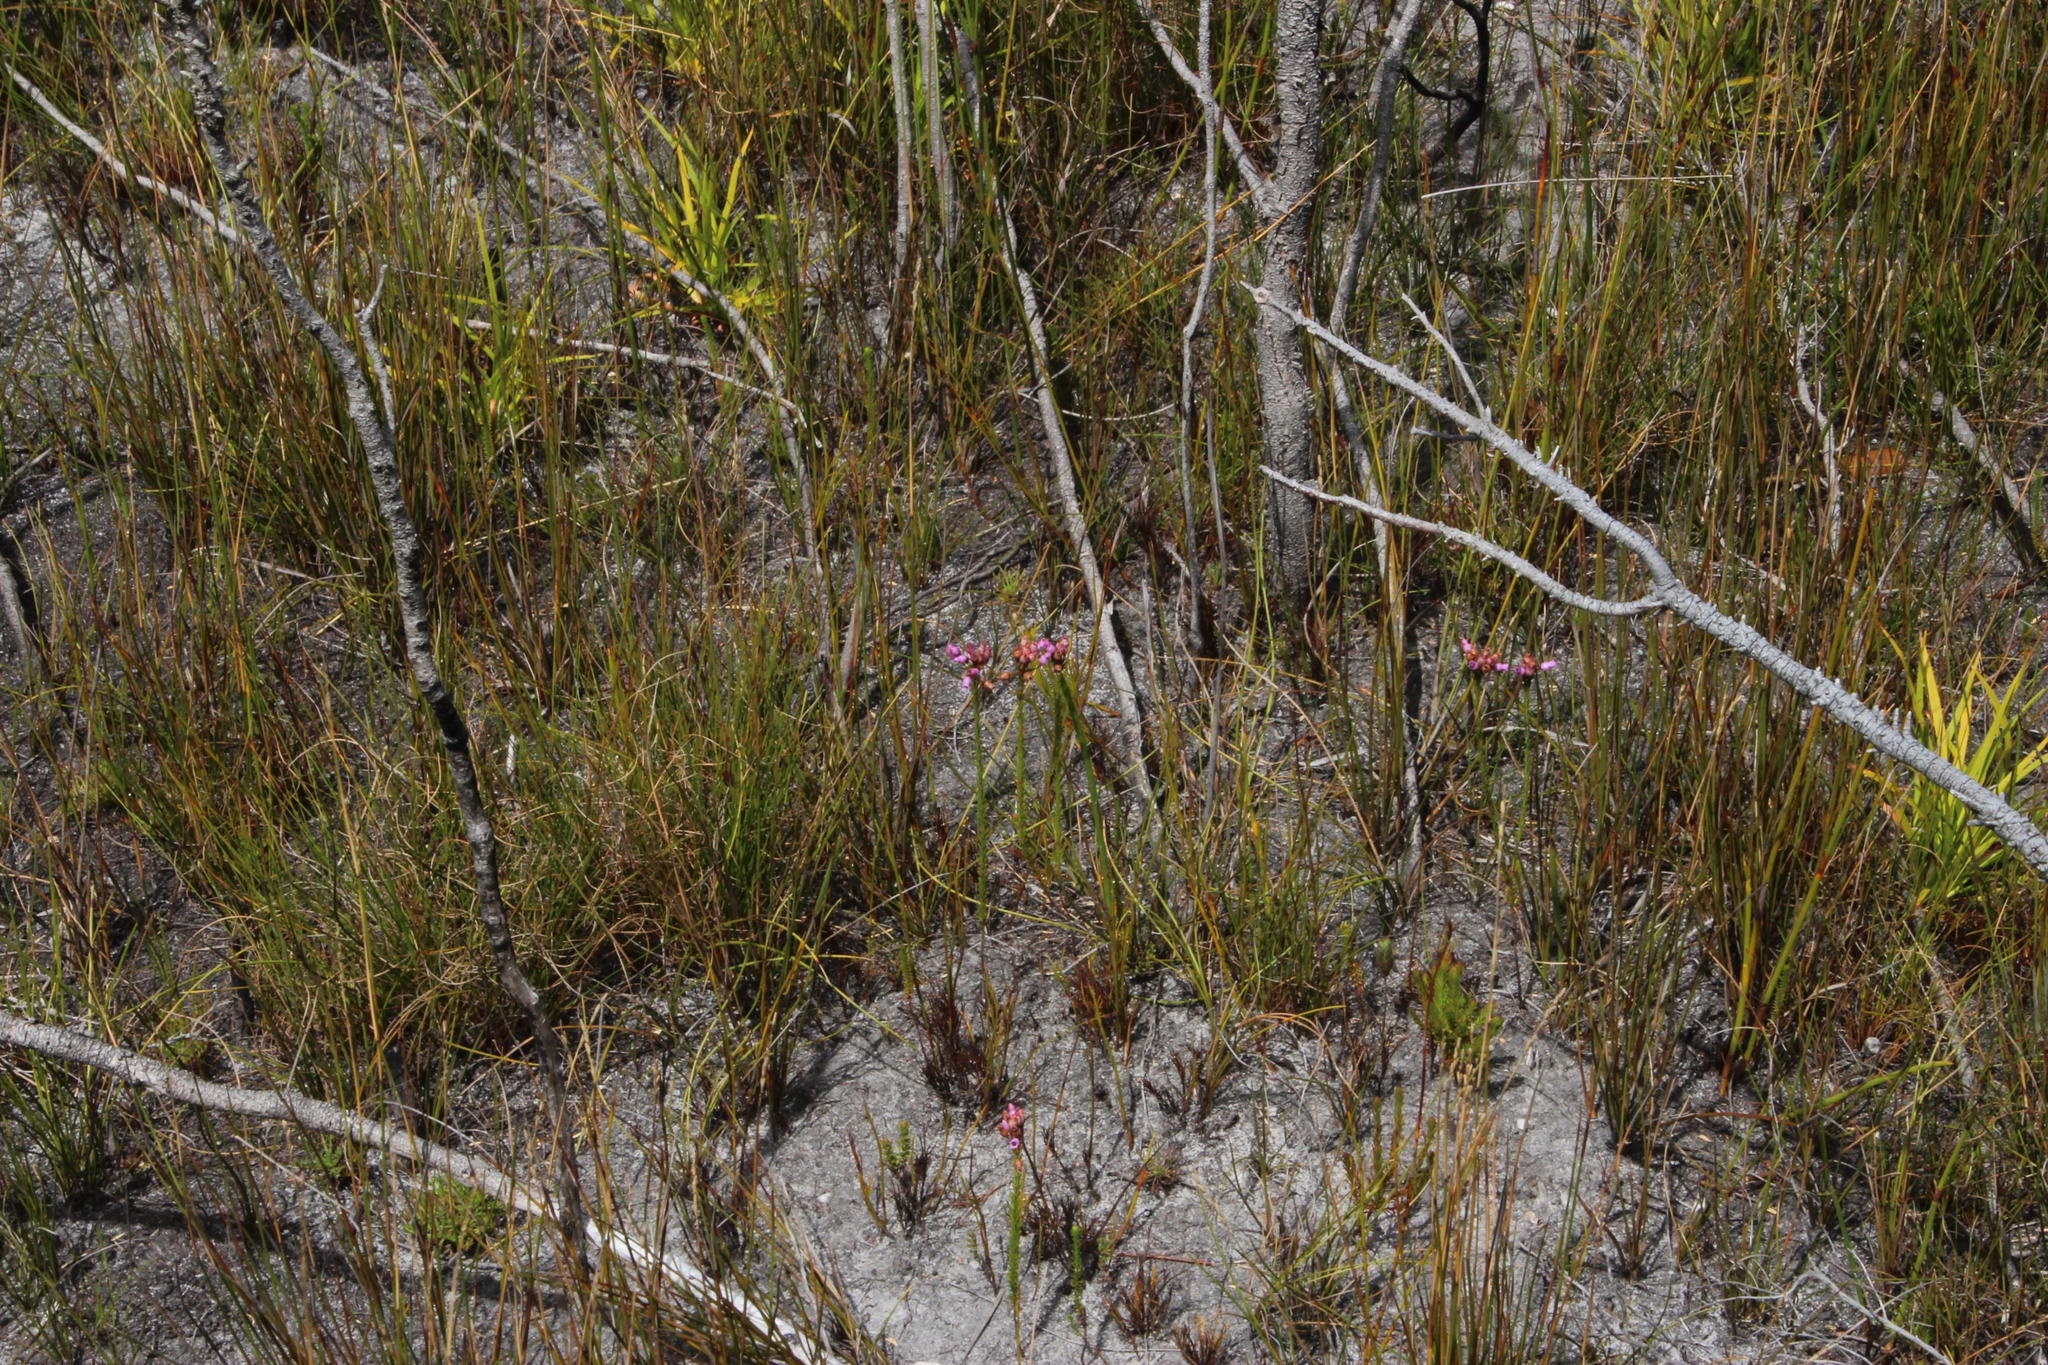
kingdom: Plantae
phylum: Tracheophyta
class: Magnoliopsida
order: Ericales
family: Ericaceae
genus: Erica
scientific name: Erica obliqua
